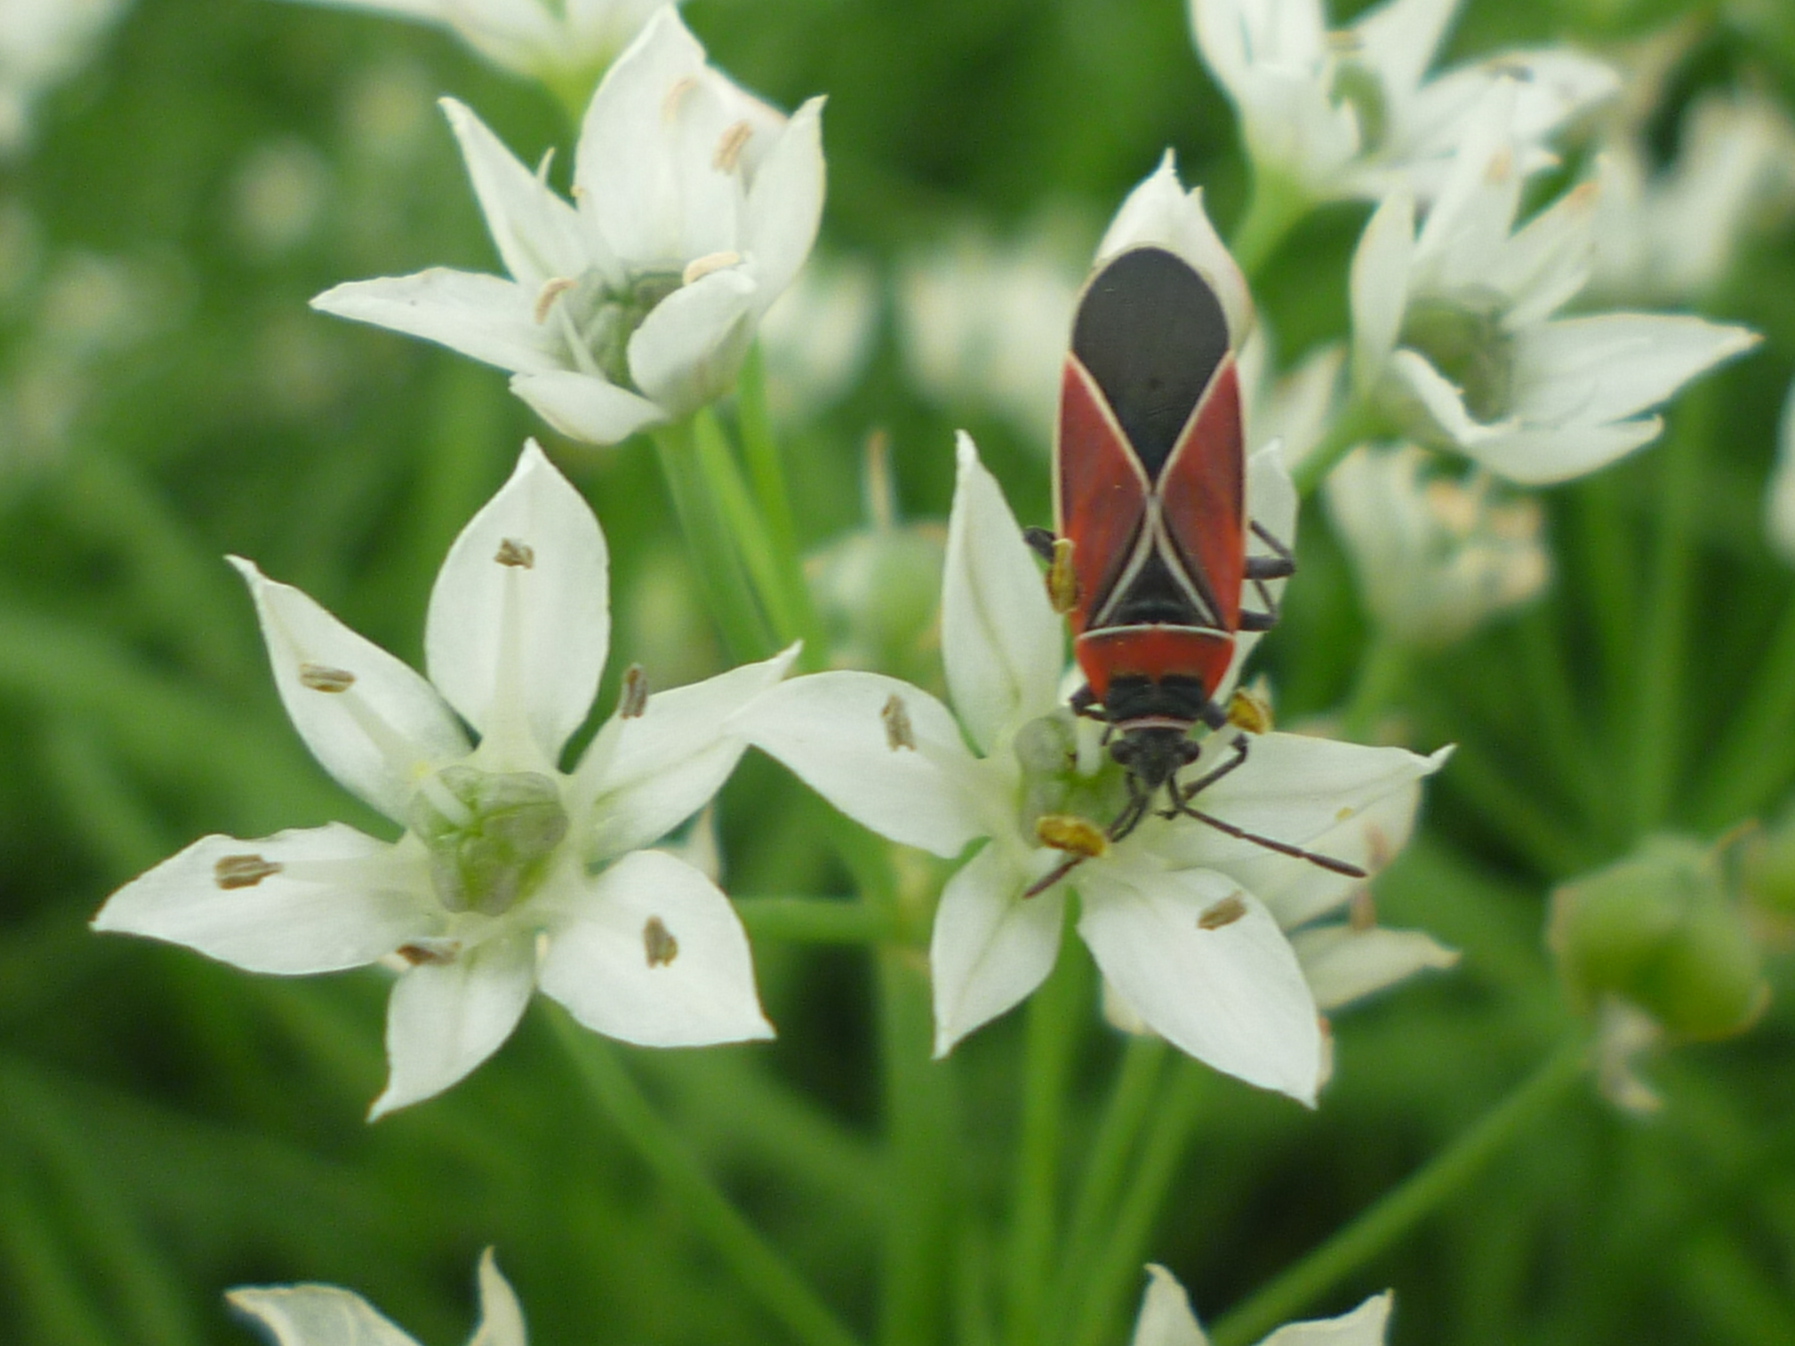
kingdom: Animalia
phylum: Arthropoda
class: Insecta
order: Hemiptera
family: Lygaeidae
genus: Neacoryphus
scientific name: Neacoryphus bicrucis
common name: Lygaeid bug
